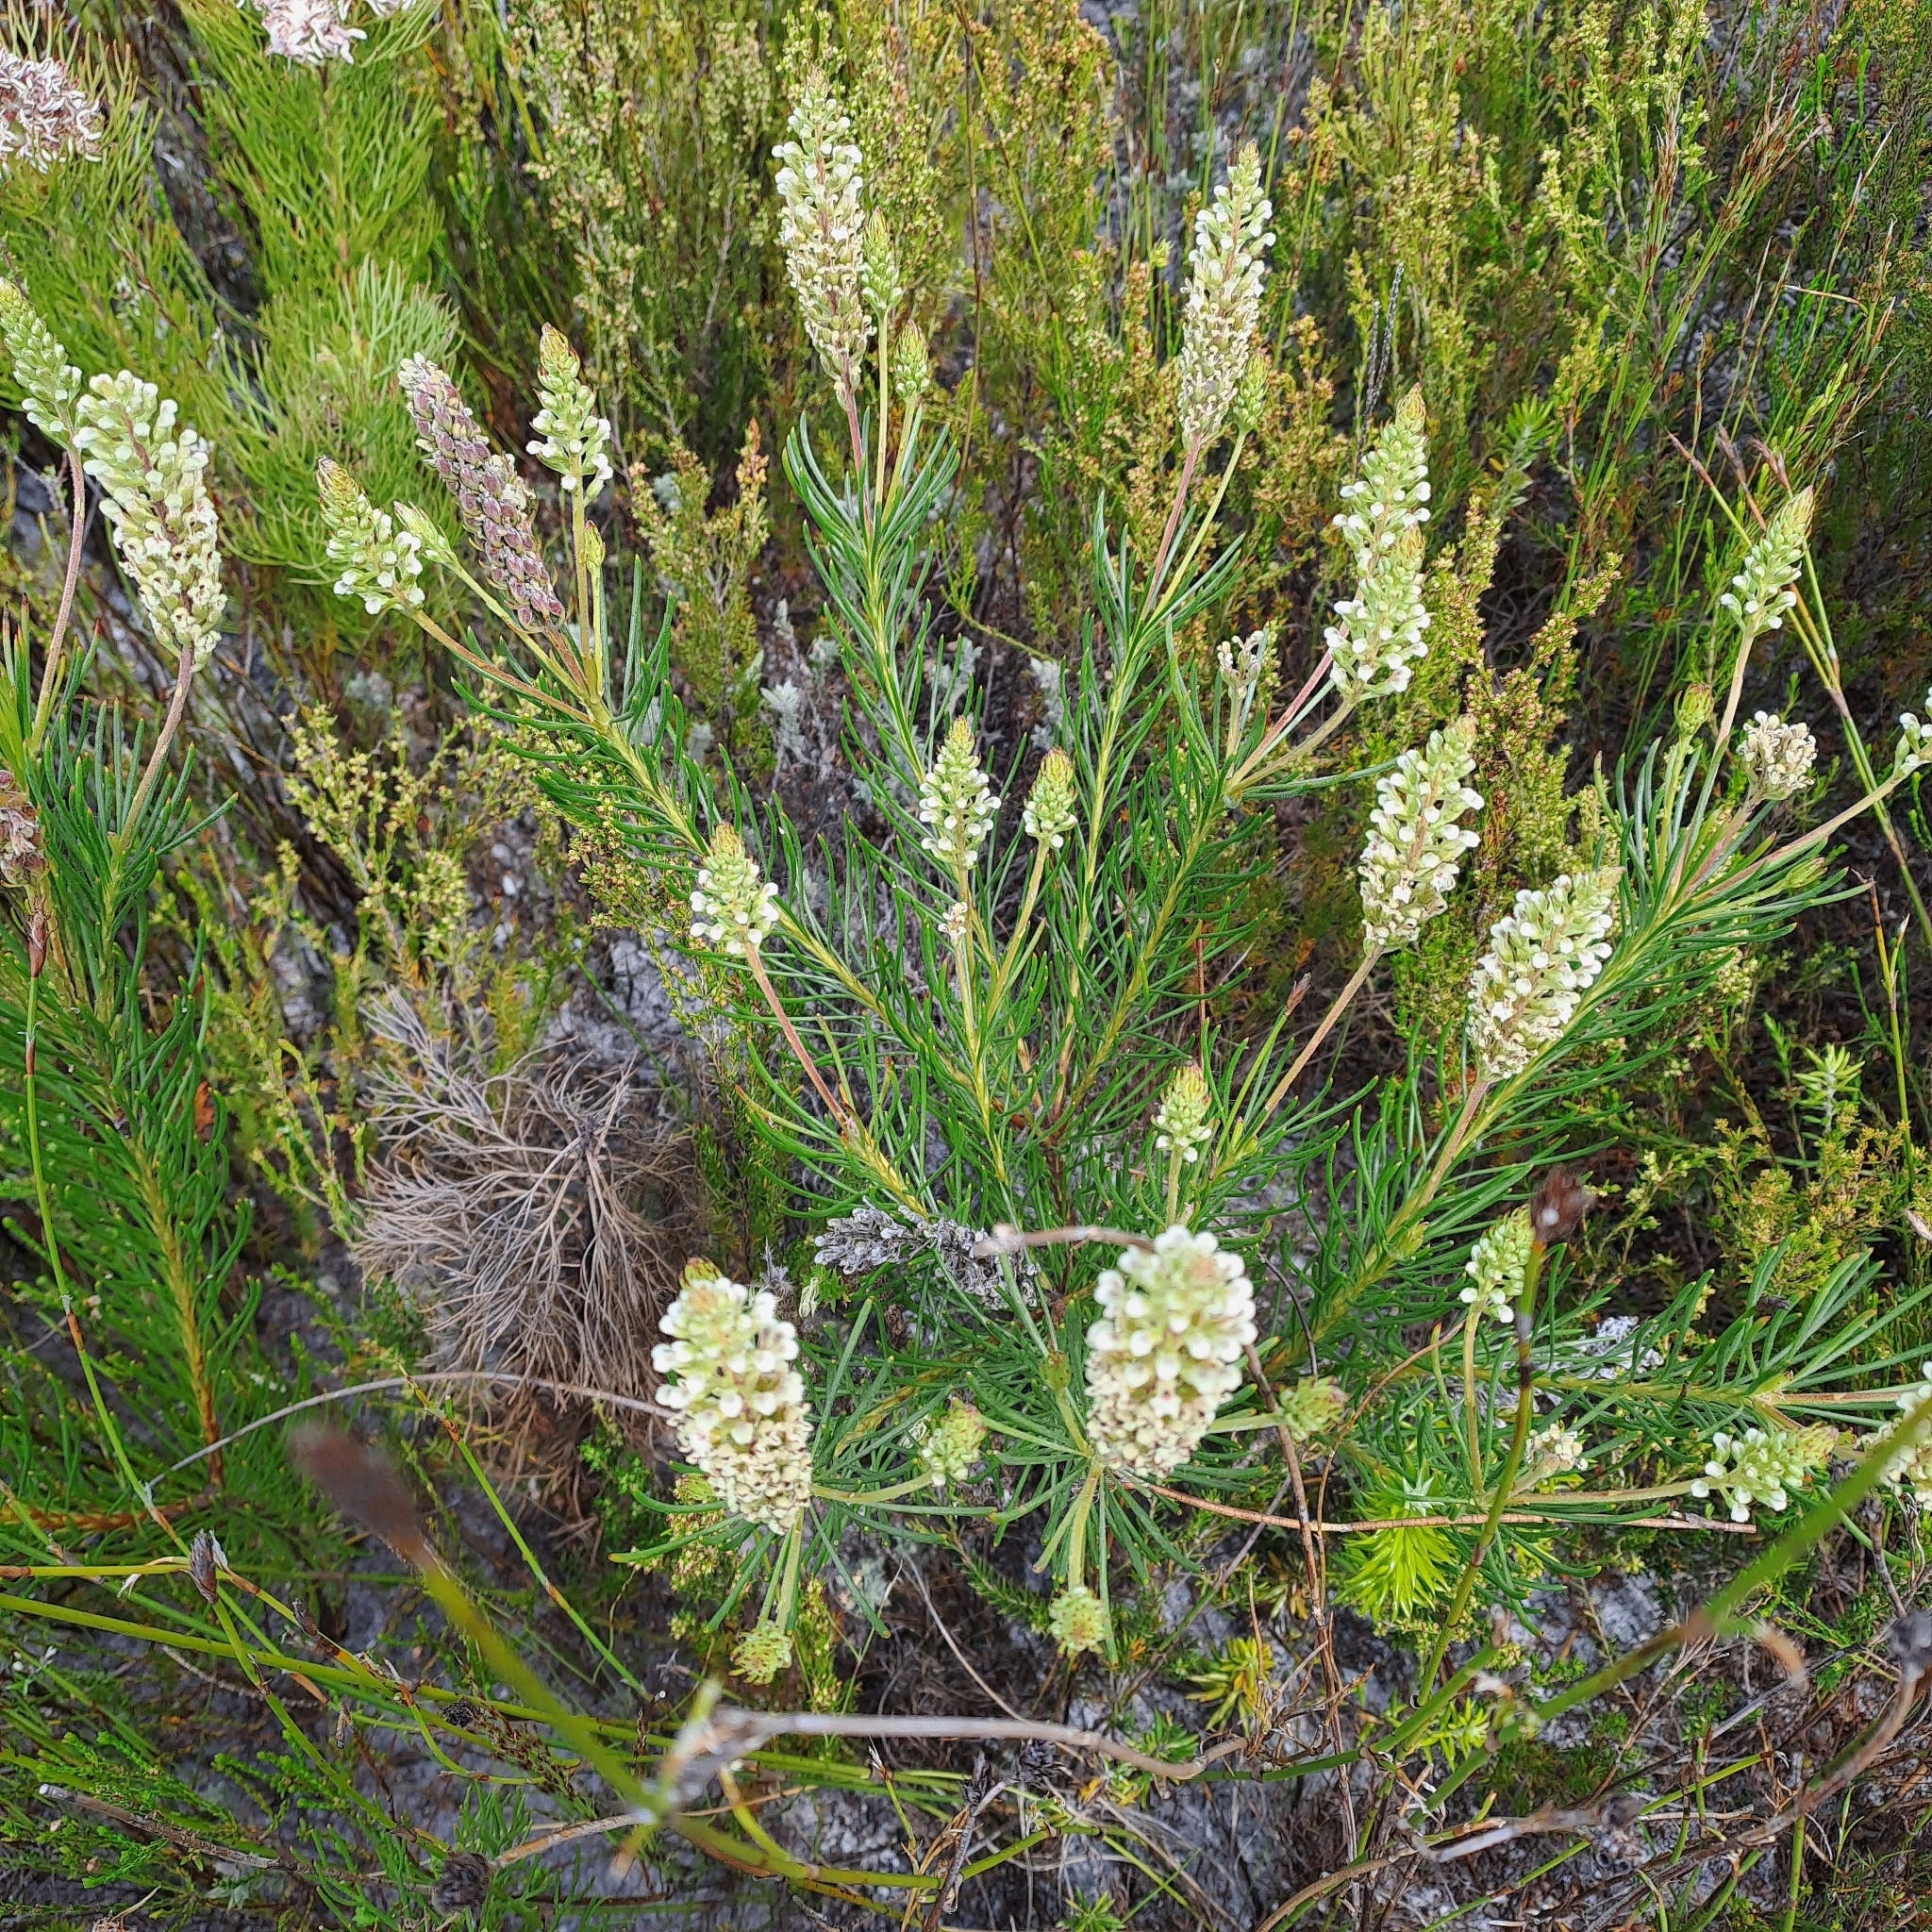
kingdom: Plantae
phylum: Tracheophyta
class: Magnoliopsida
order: Proteales
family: Proteaceae
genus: Spatalla
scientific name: Spatalla curvifolia
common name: White-stalked spoon
